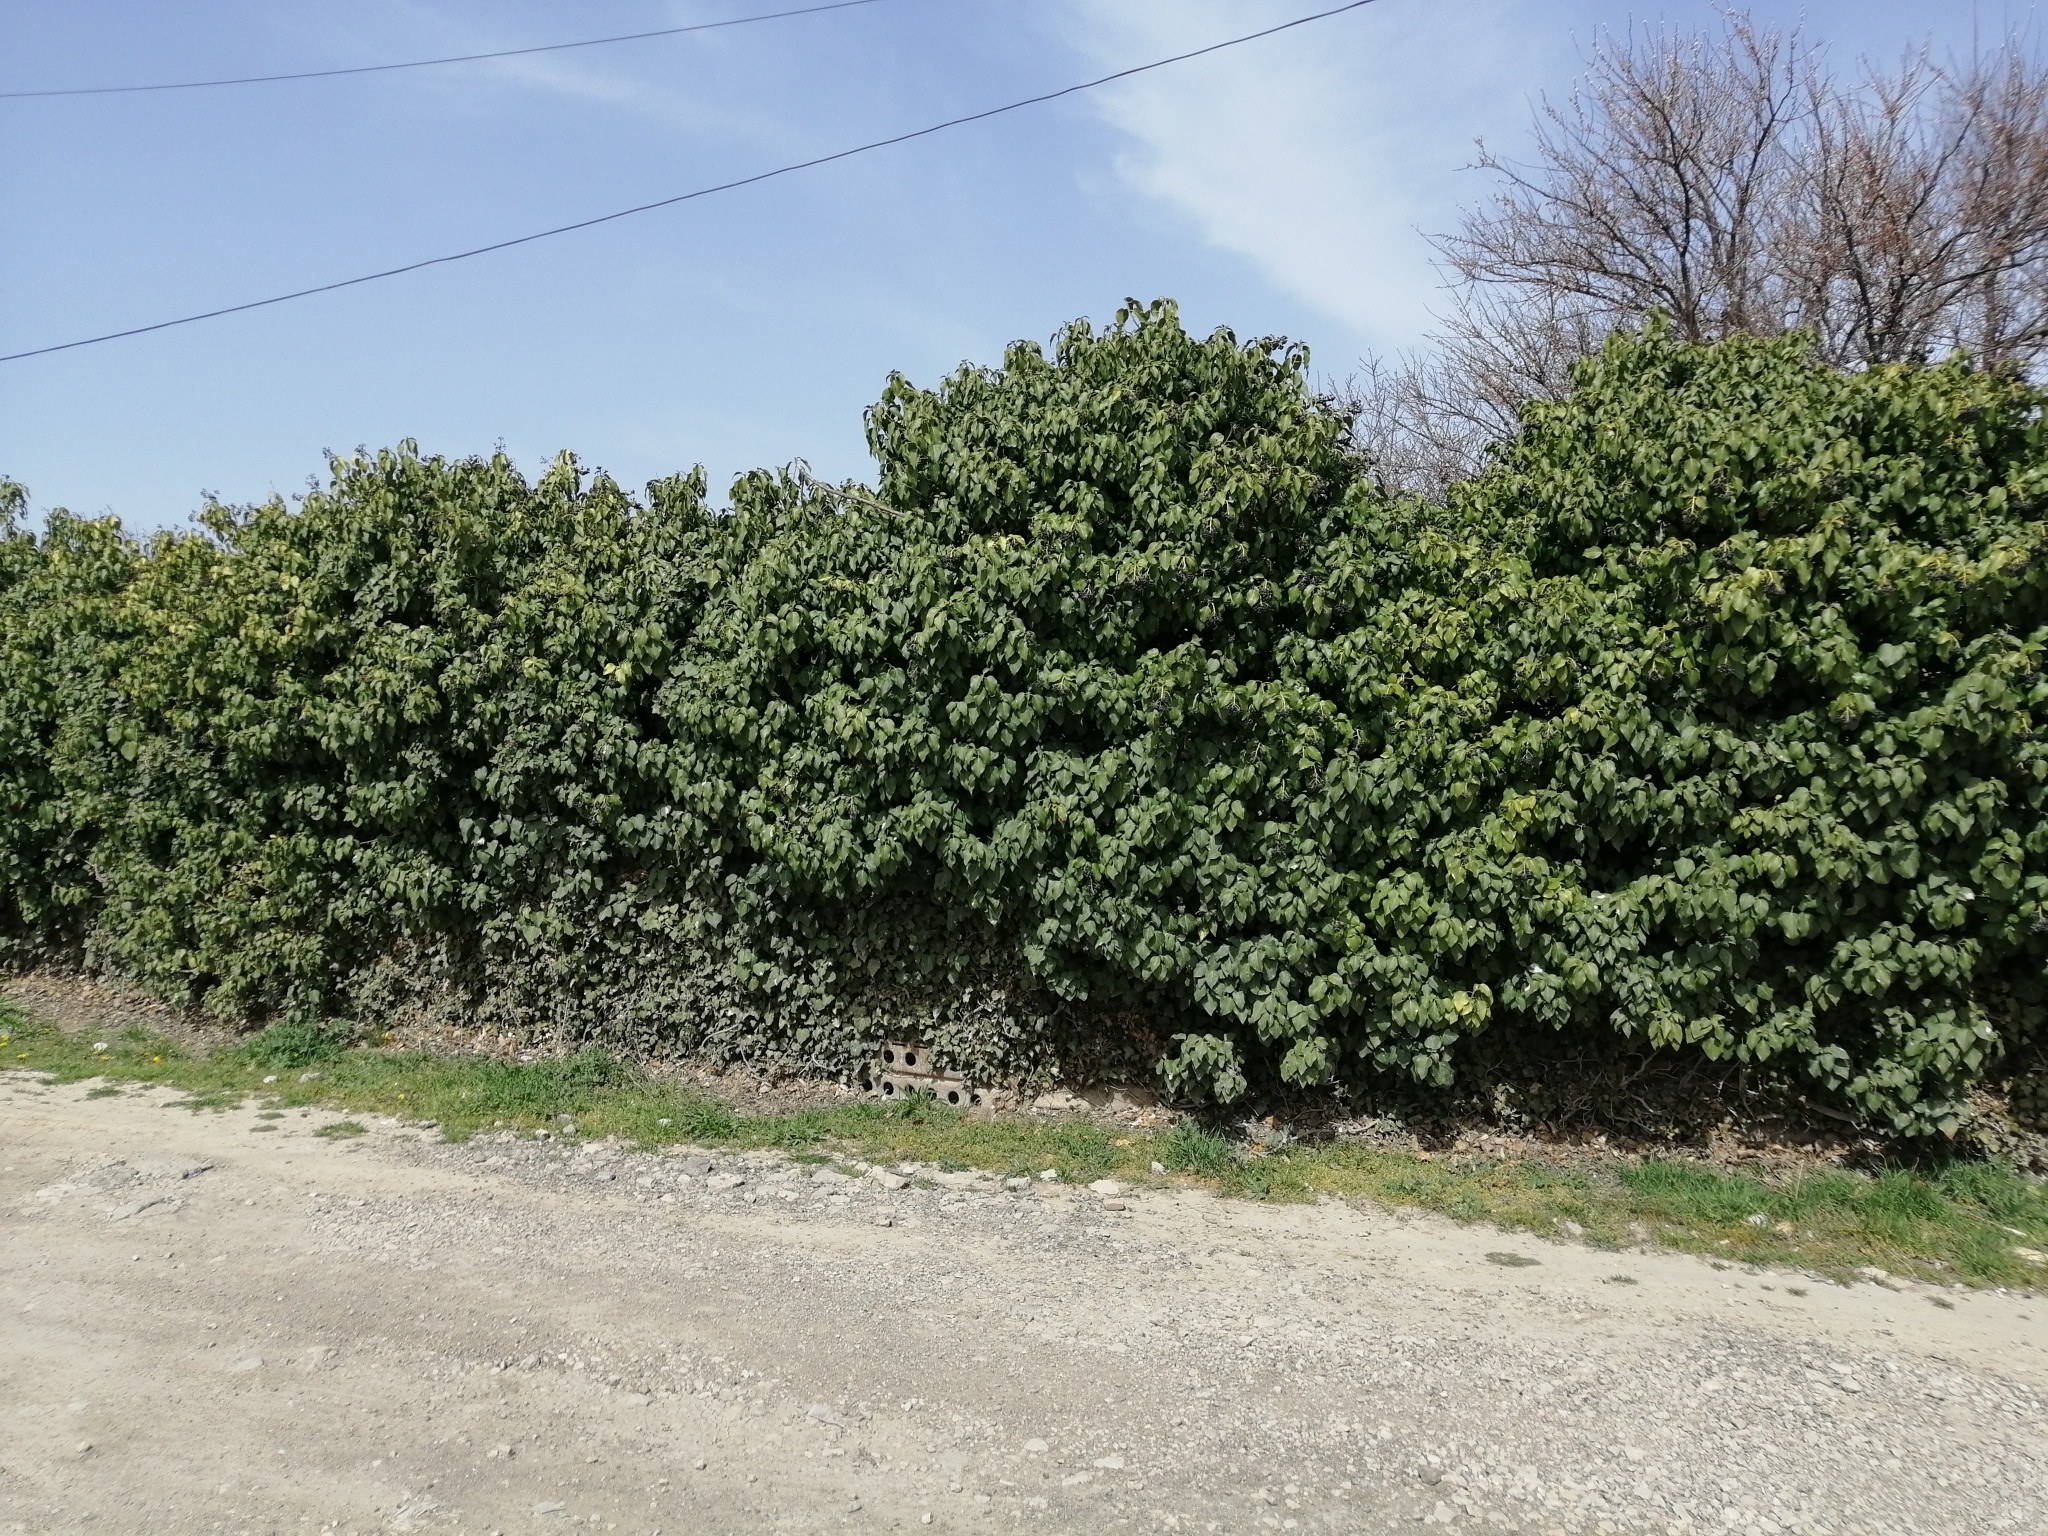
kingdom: Plantae
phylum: Tracheophyta
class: Magnoliopsida
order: Apiales
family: Araliaceae
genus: Hedera
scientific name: Hedera helix
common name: Ivy
